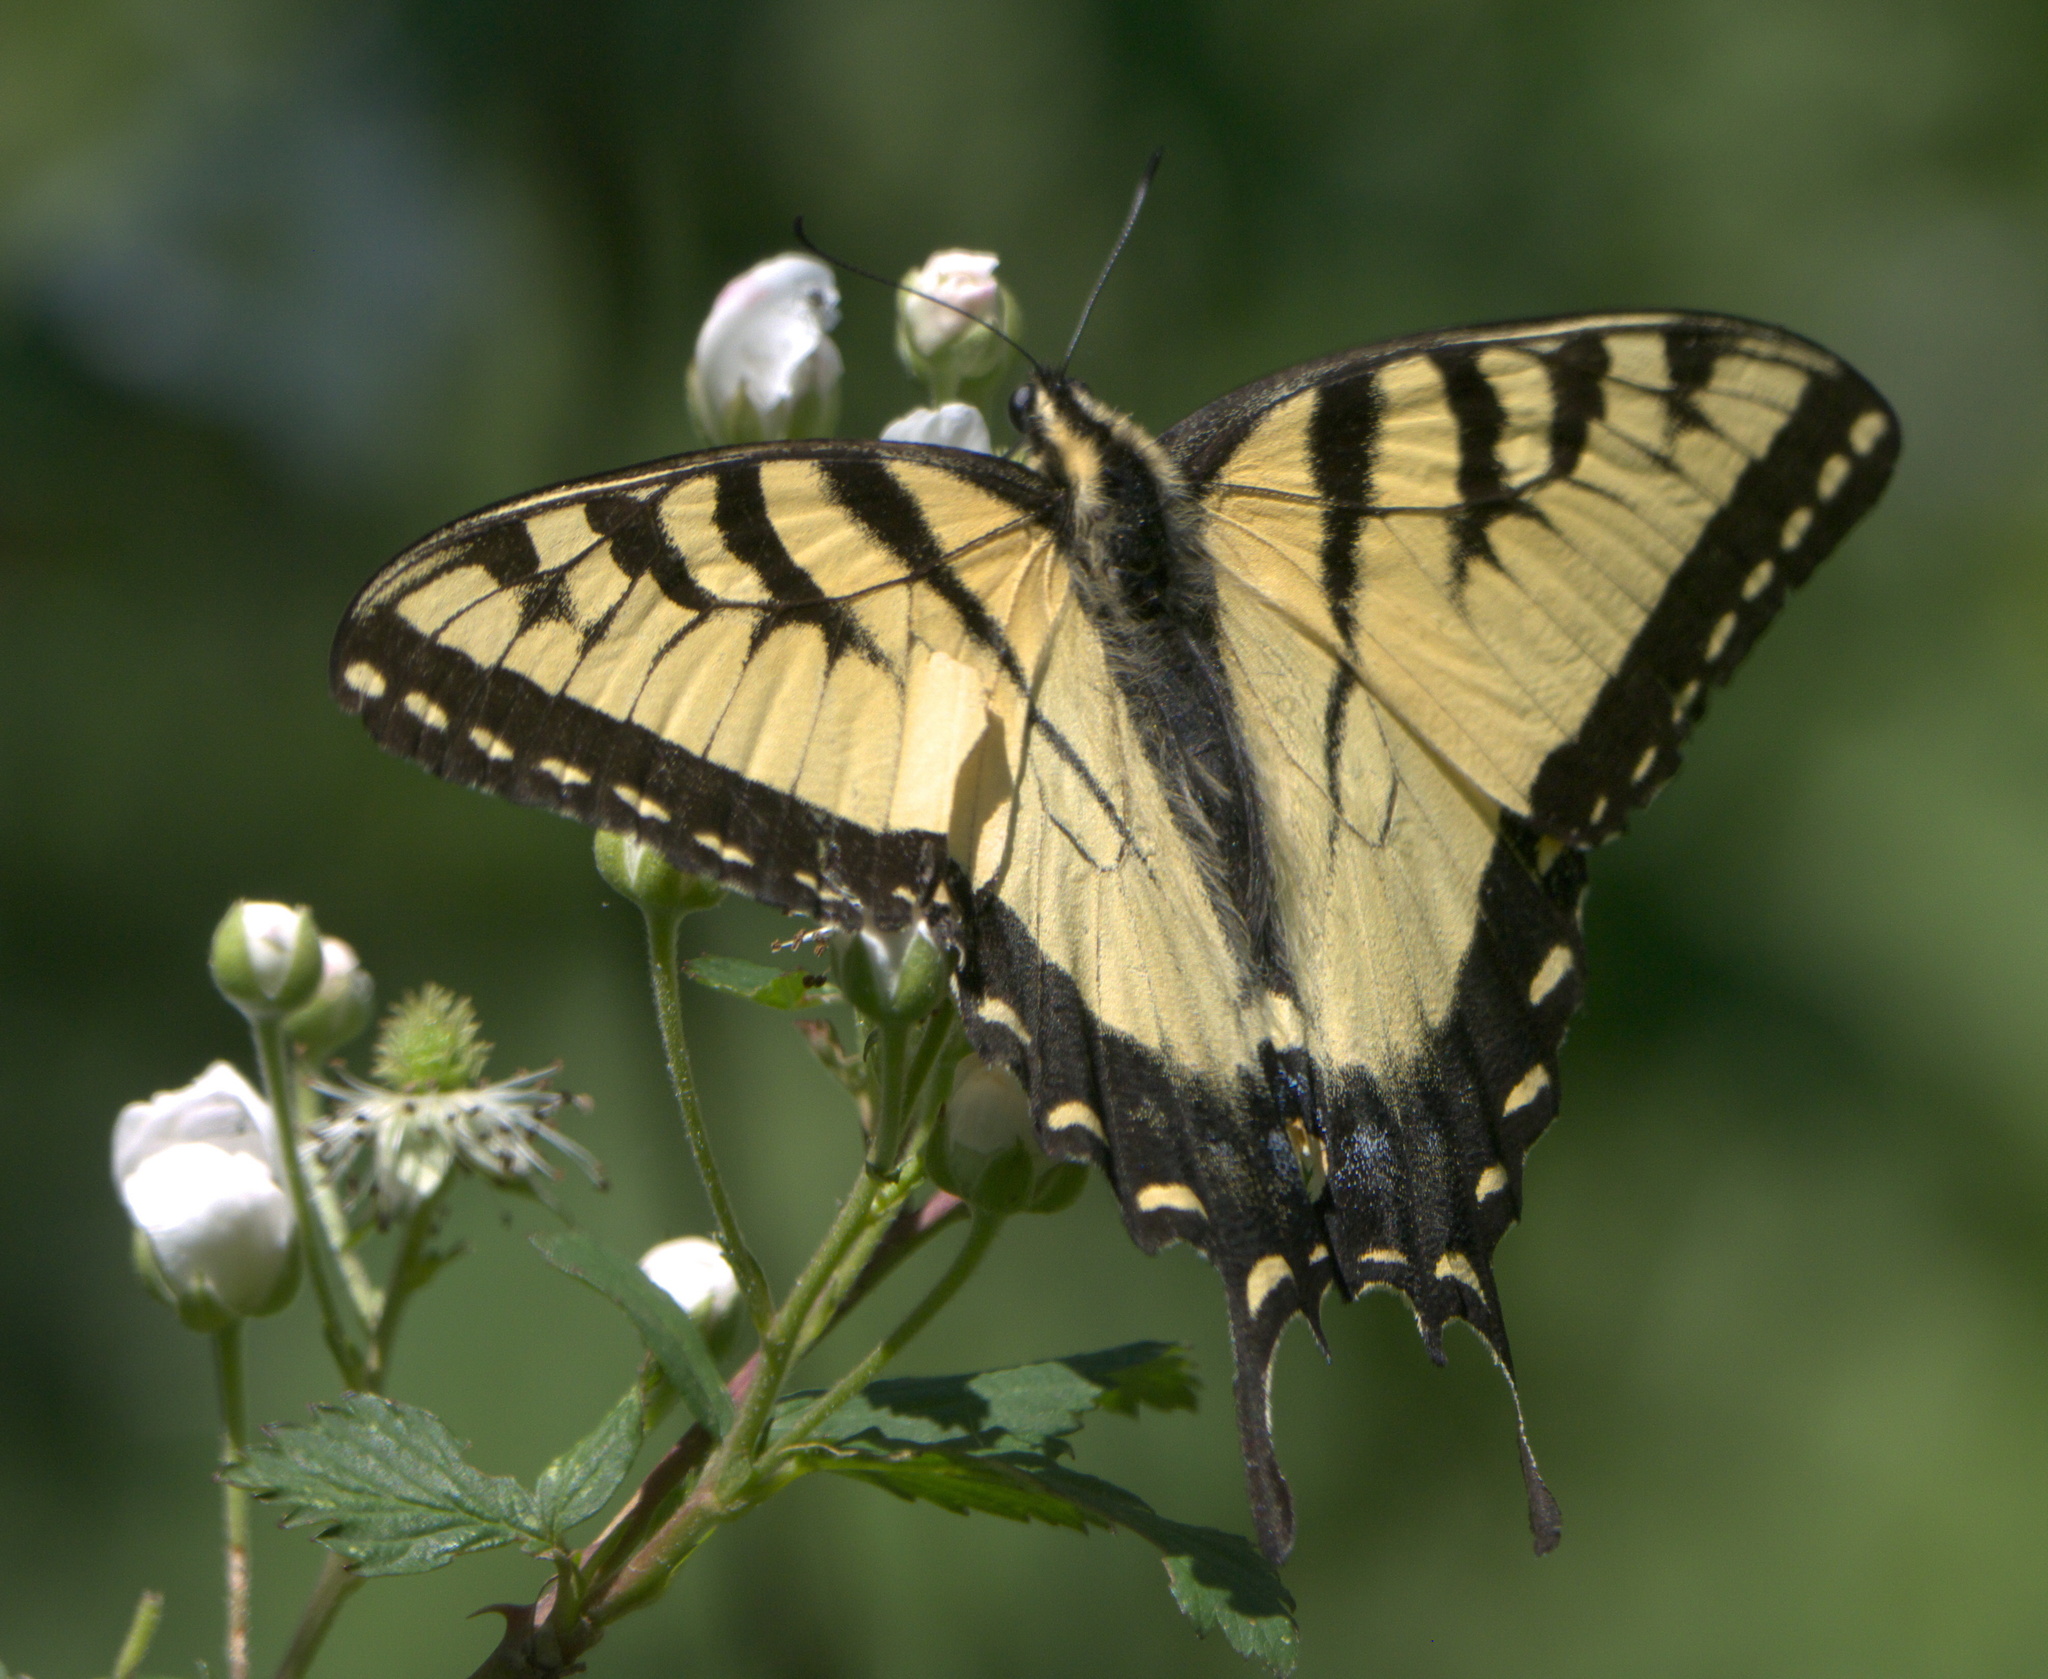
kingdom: Animalia
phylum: Arthropoda
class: Insecta
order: Lepidoptera
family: Papilionidae
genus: Papilio
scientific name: Papilio glaucus
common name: Tiger swallowtail
